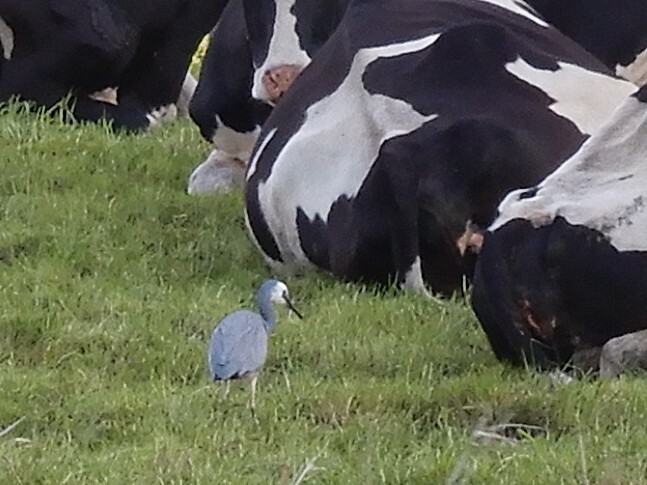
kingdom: Animalia
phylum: Chordata
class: Aves
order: Pelecaniformes
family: Ardeidae
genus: Egretta
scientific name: Egretta novaehollandiae
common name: White-faced heron
